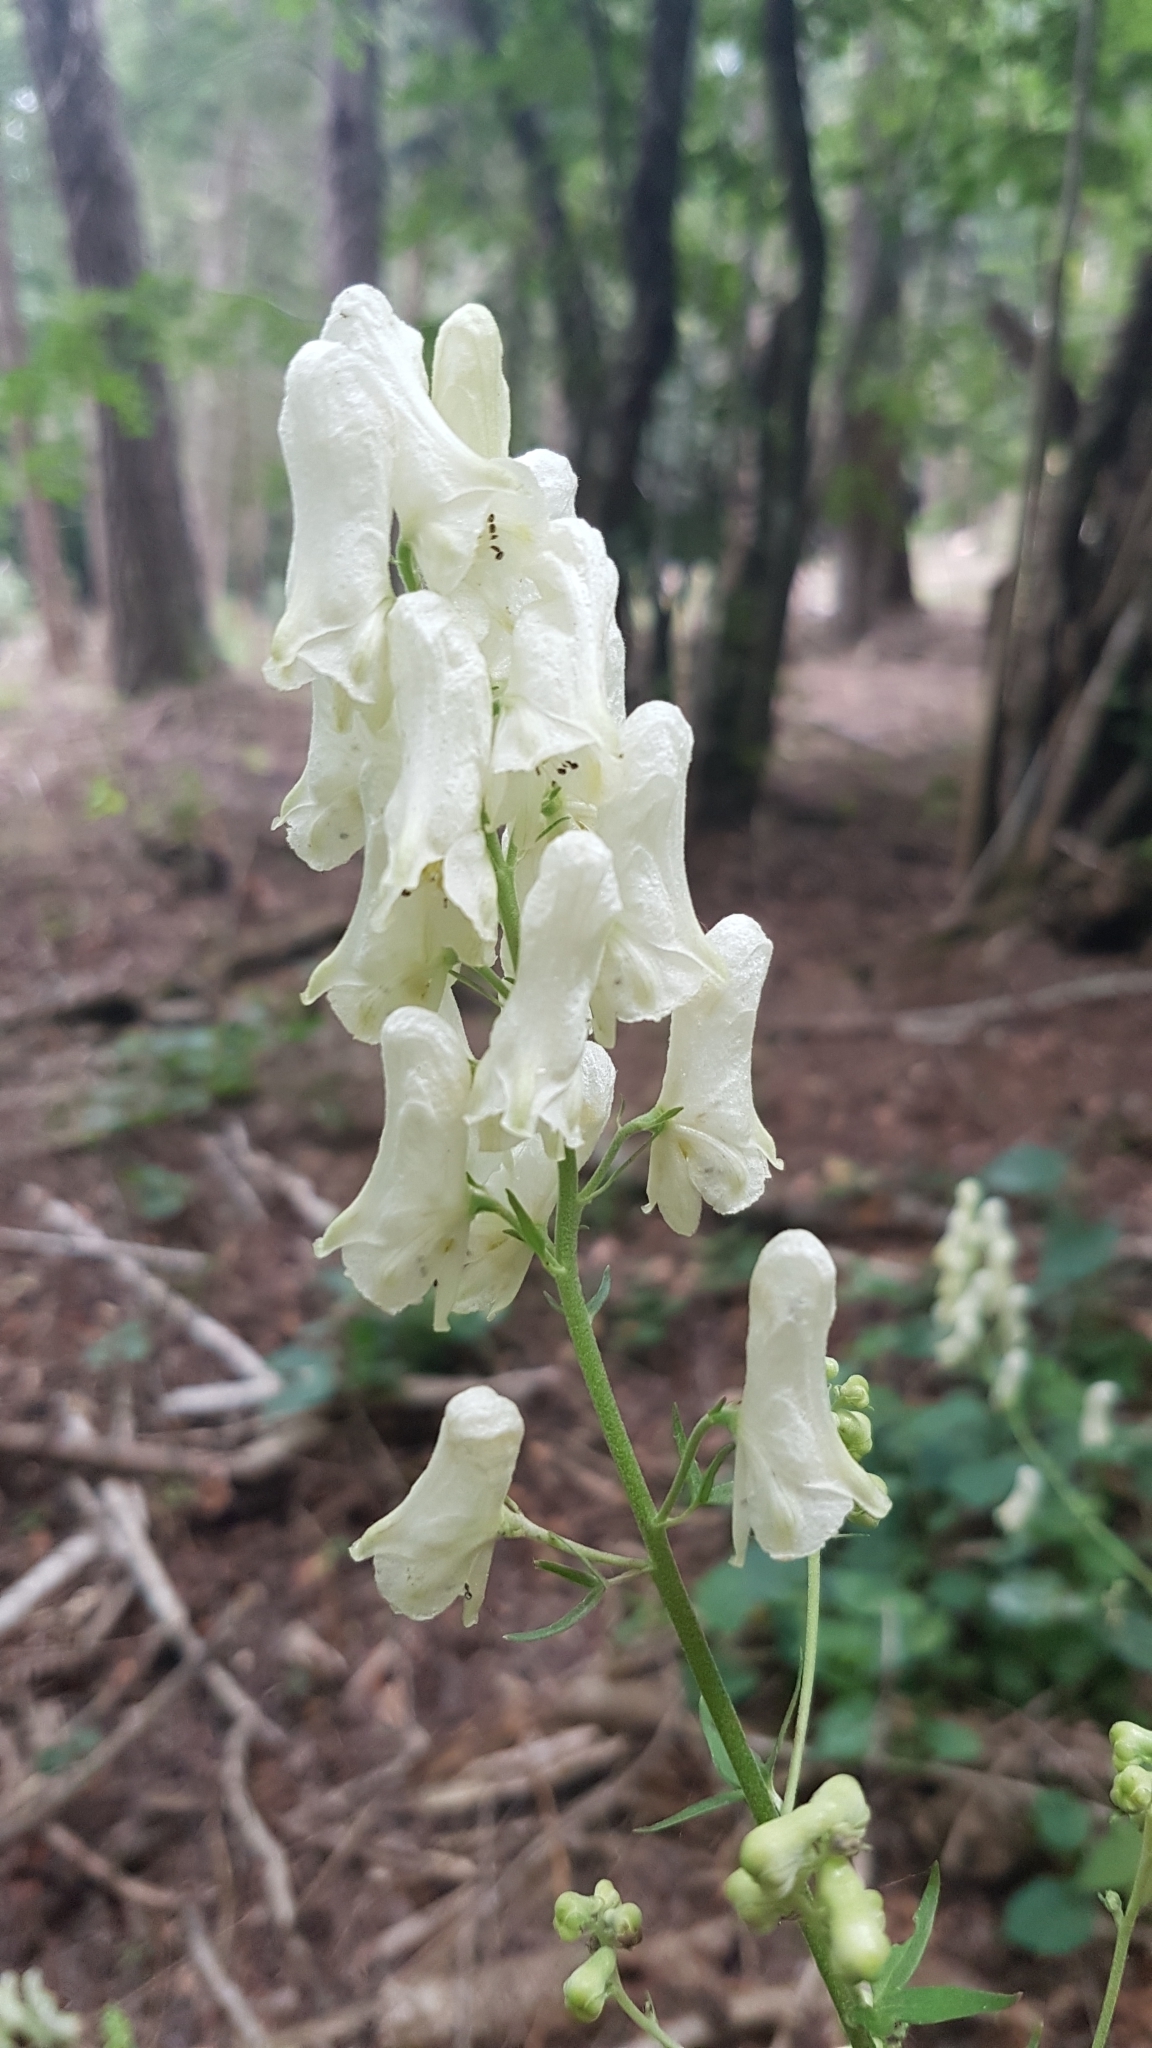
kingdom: Plantae
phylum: Tracheophyta
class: Magnoliopsida
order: Ranunculales
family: Ranunculaceae
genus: Aconitum
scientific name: Aconitum lycoctonum
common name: Wolf's-bane
